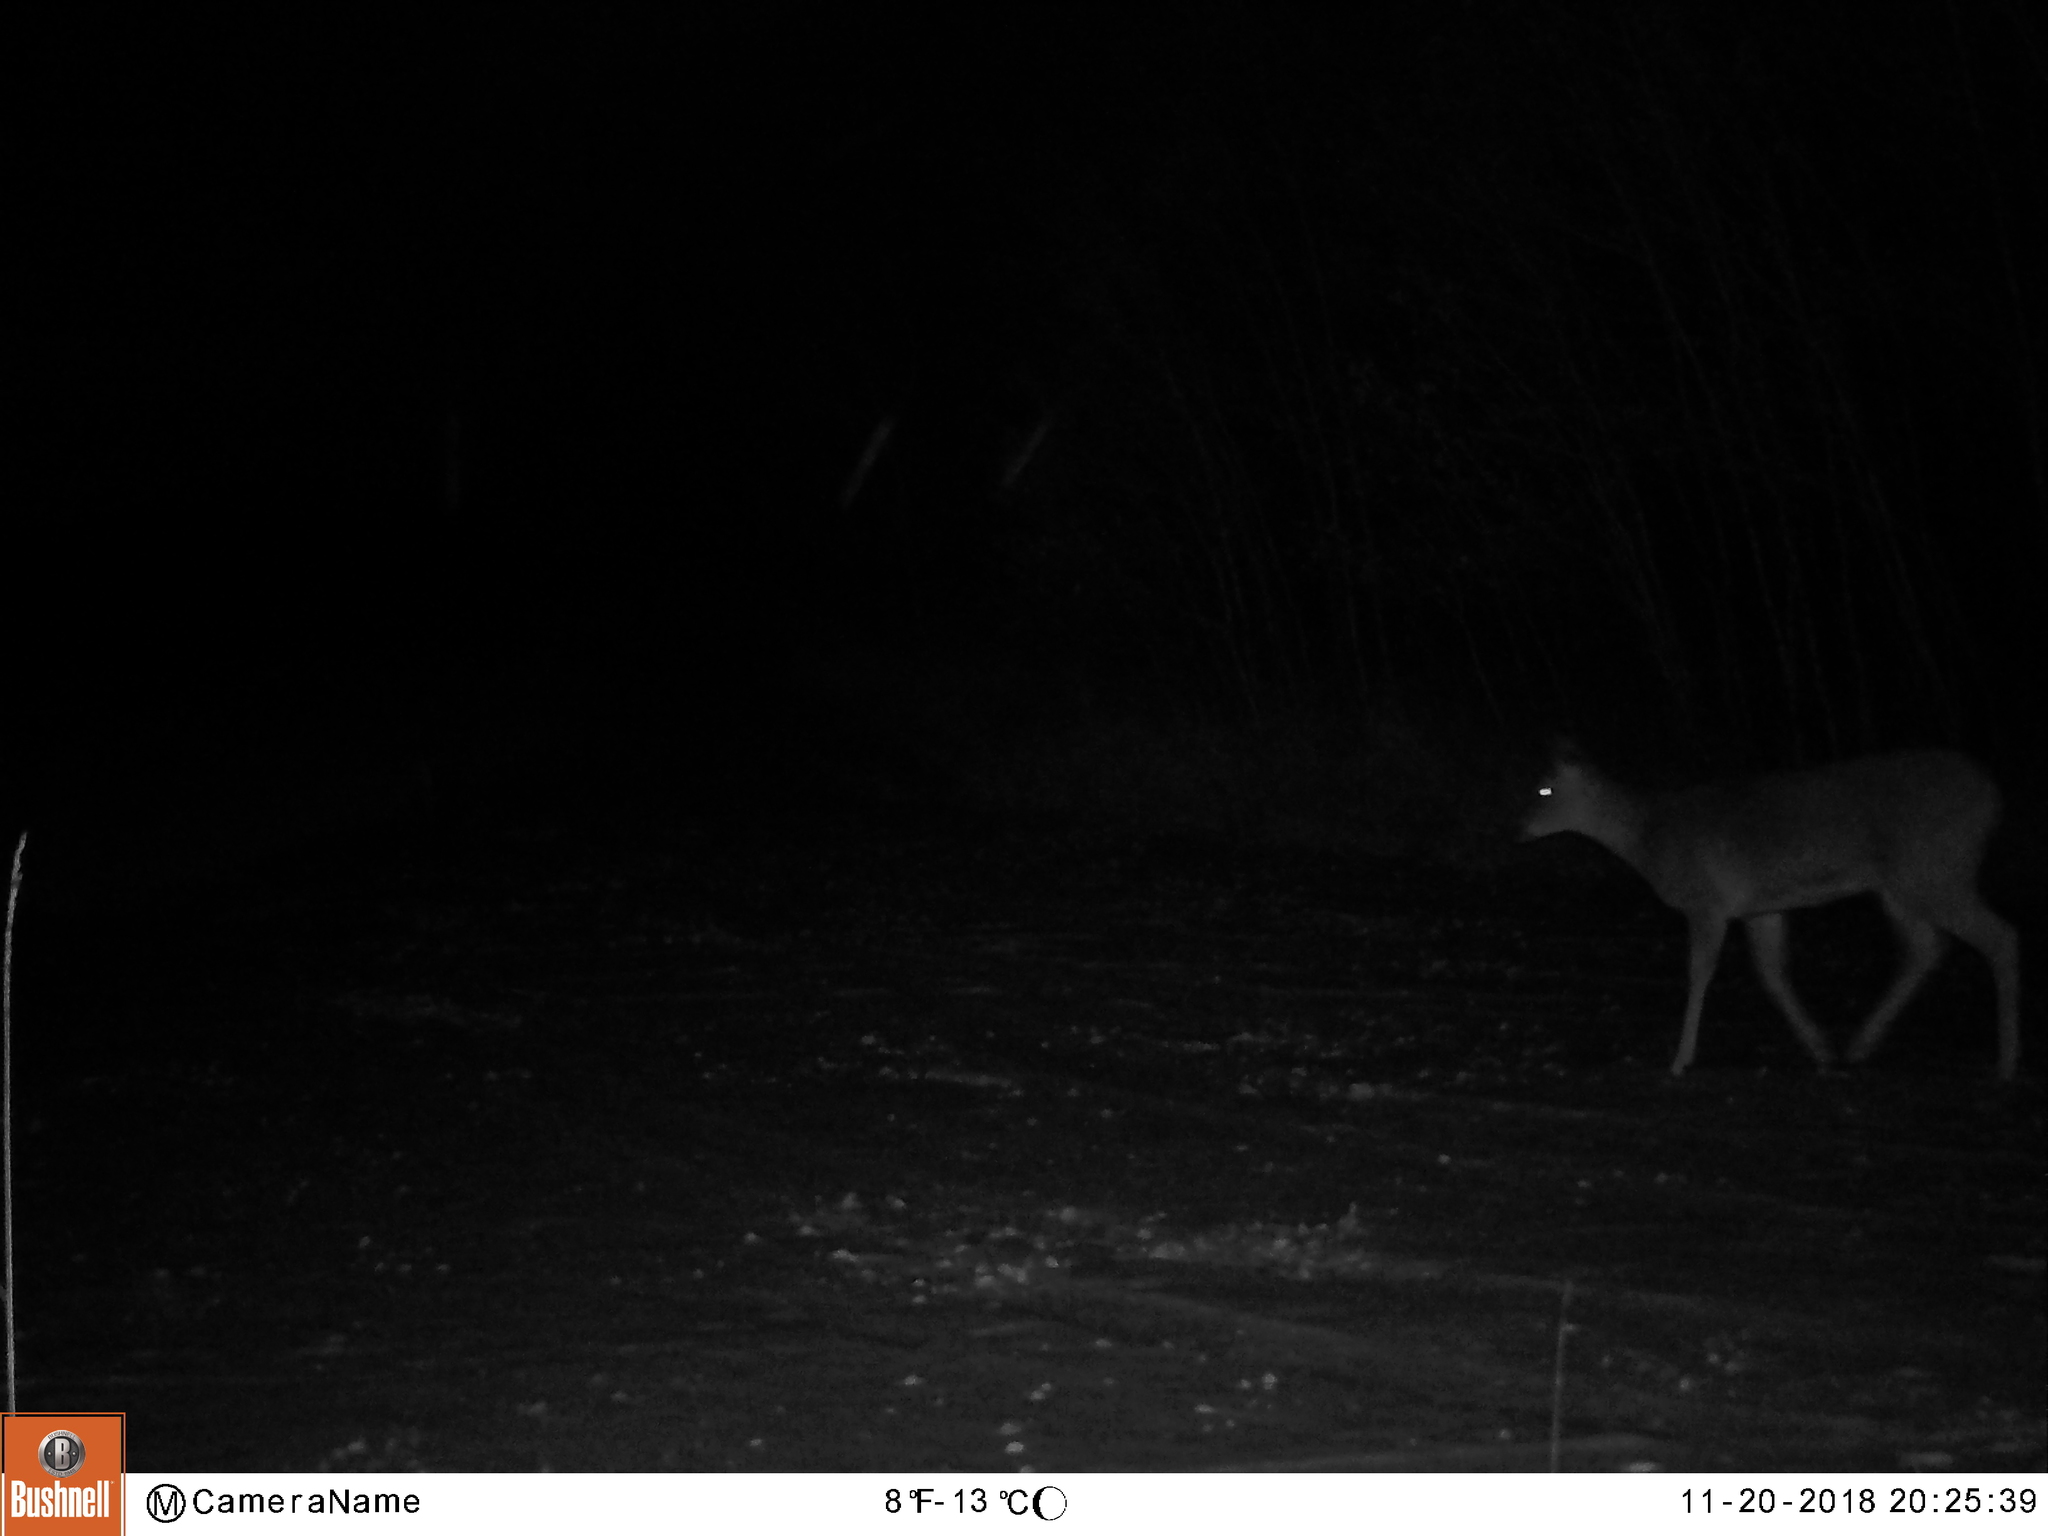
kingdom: Animalia
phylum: Chordata
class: Mammalia
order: Artiodactyla
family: Cervidae
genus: Odocoileus
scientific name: Odocoileus virginianus
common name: White-tailed deer
